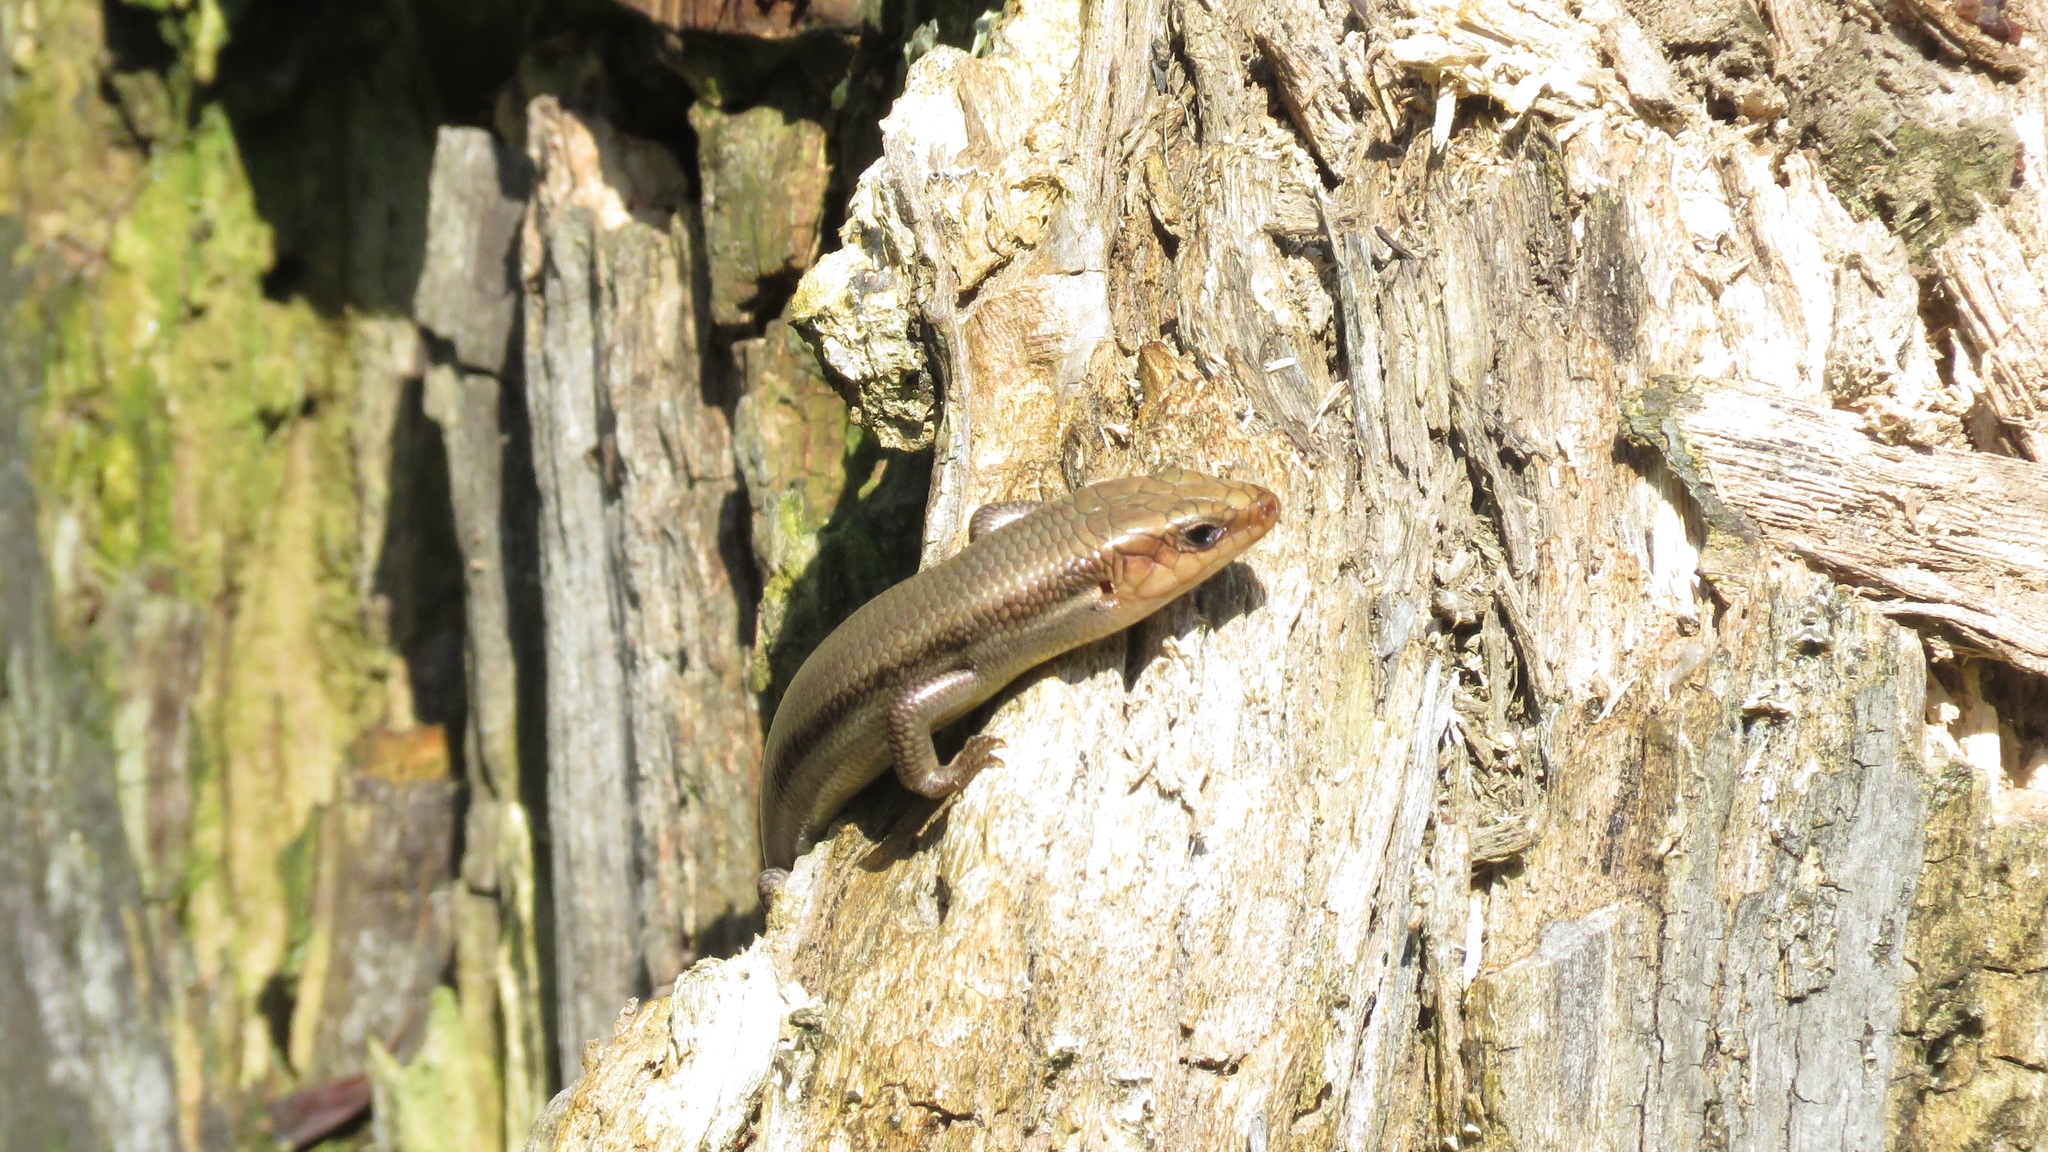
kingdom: Animalia
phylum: Chordata
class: Squamata
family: Scincidae
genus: Plestiodon
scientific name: Plestiodon fasciatus
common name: Five-lined skink
